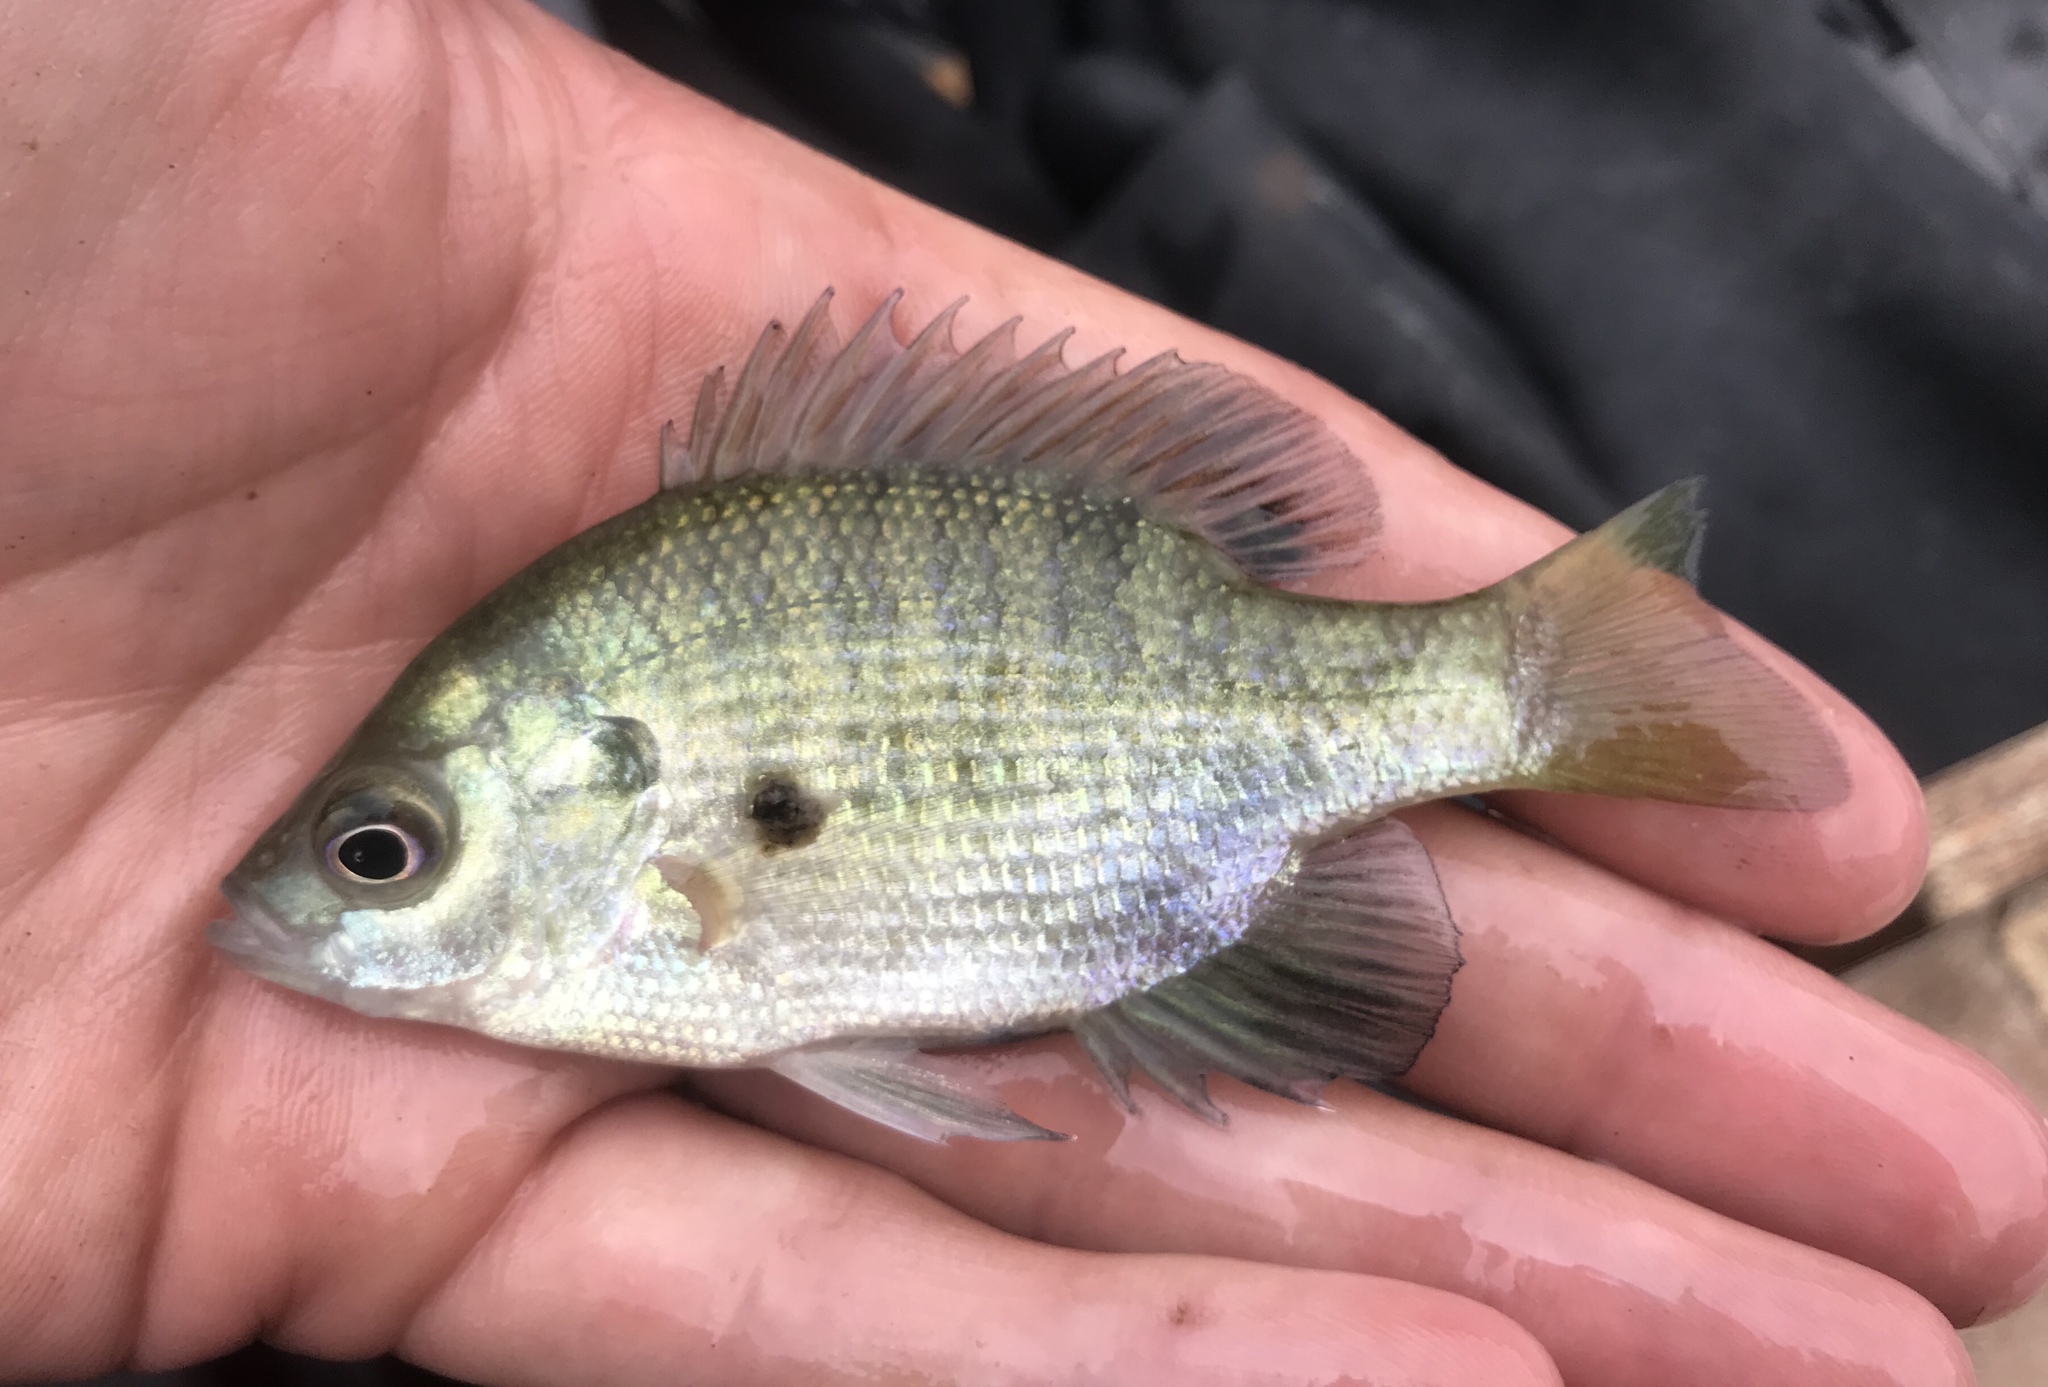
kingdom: Animalia
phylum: Chordata
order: Perciformes
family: Centrarchidae
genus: Lepomis
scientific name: Lepomis macrochirus
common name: Bluegill
